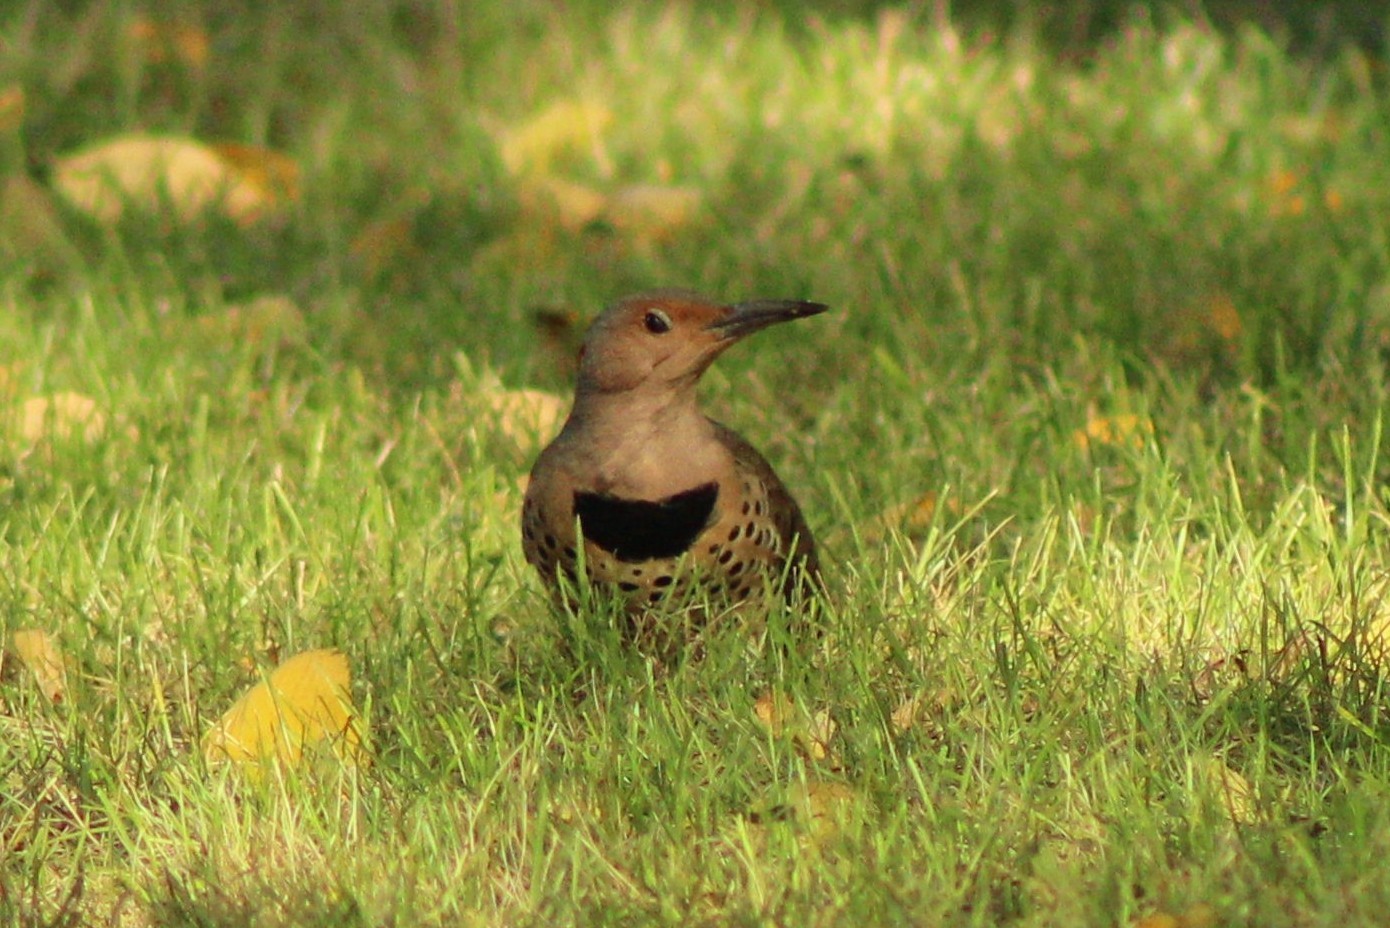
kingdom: Animalia
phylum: Chordata
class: Aves
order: Piciformes
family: Picidae
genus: Colaptes
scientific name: Colaptes auratus
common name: Northern flicker
